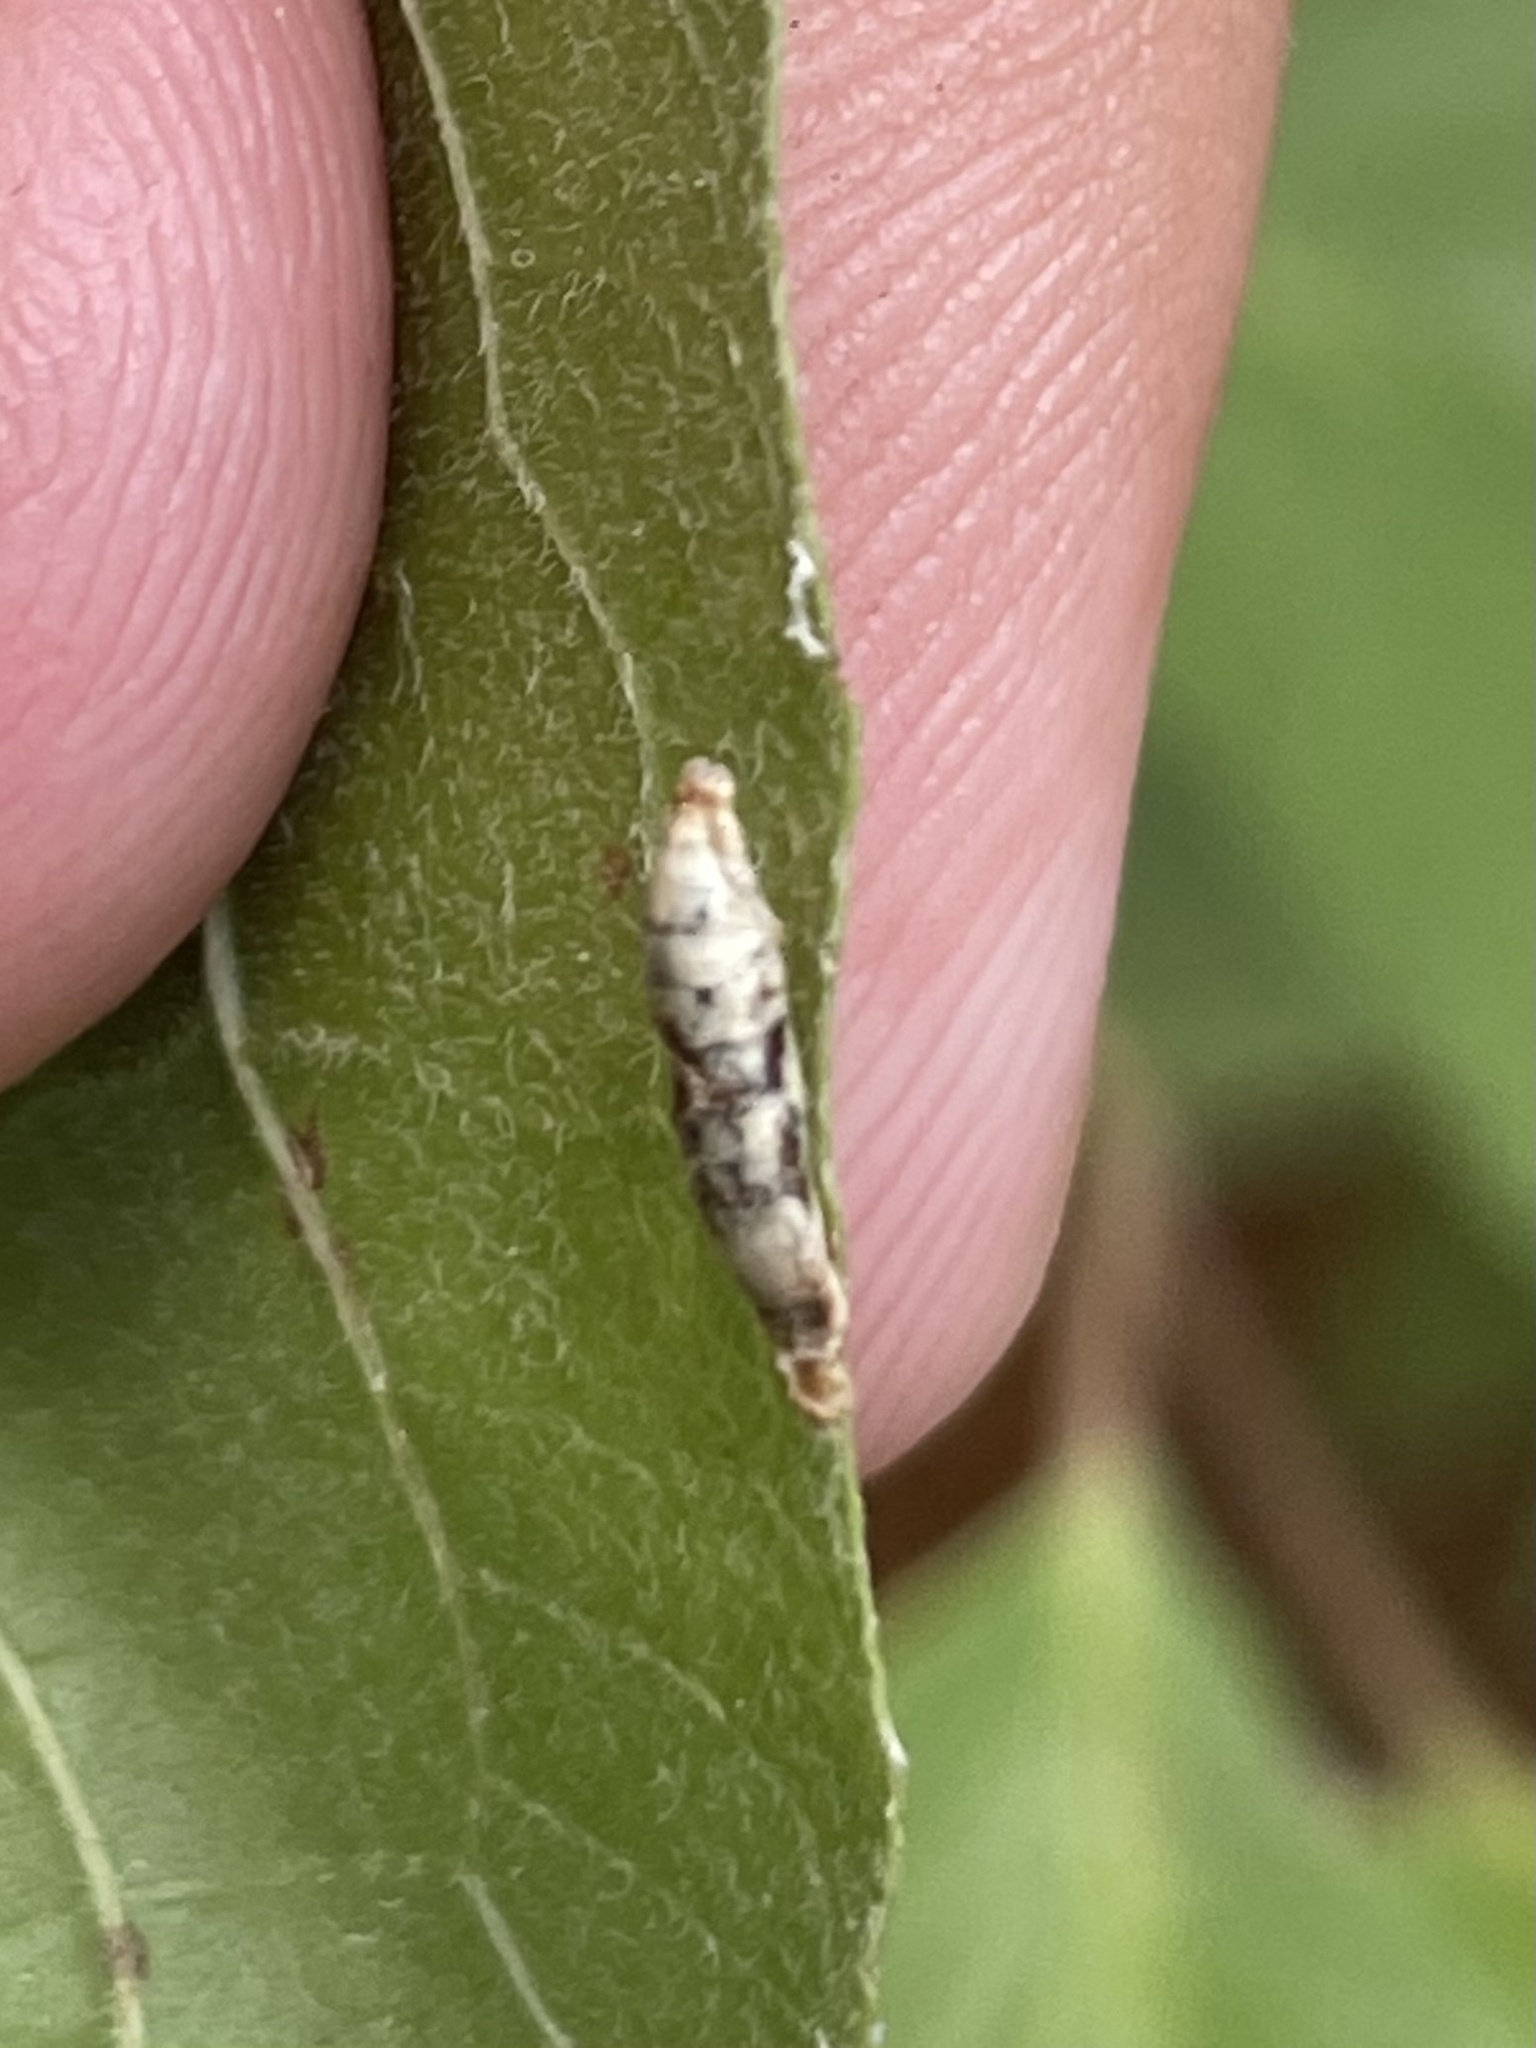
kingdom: Animalia
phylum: Arthropoda
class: Insecta
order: Diptera
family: Syrphidae
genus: Ocyptamus
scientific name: Ocyptamus fuscipennis
